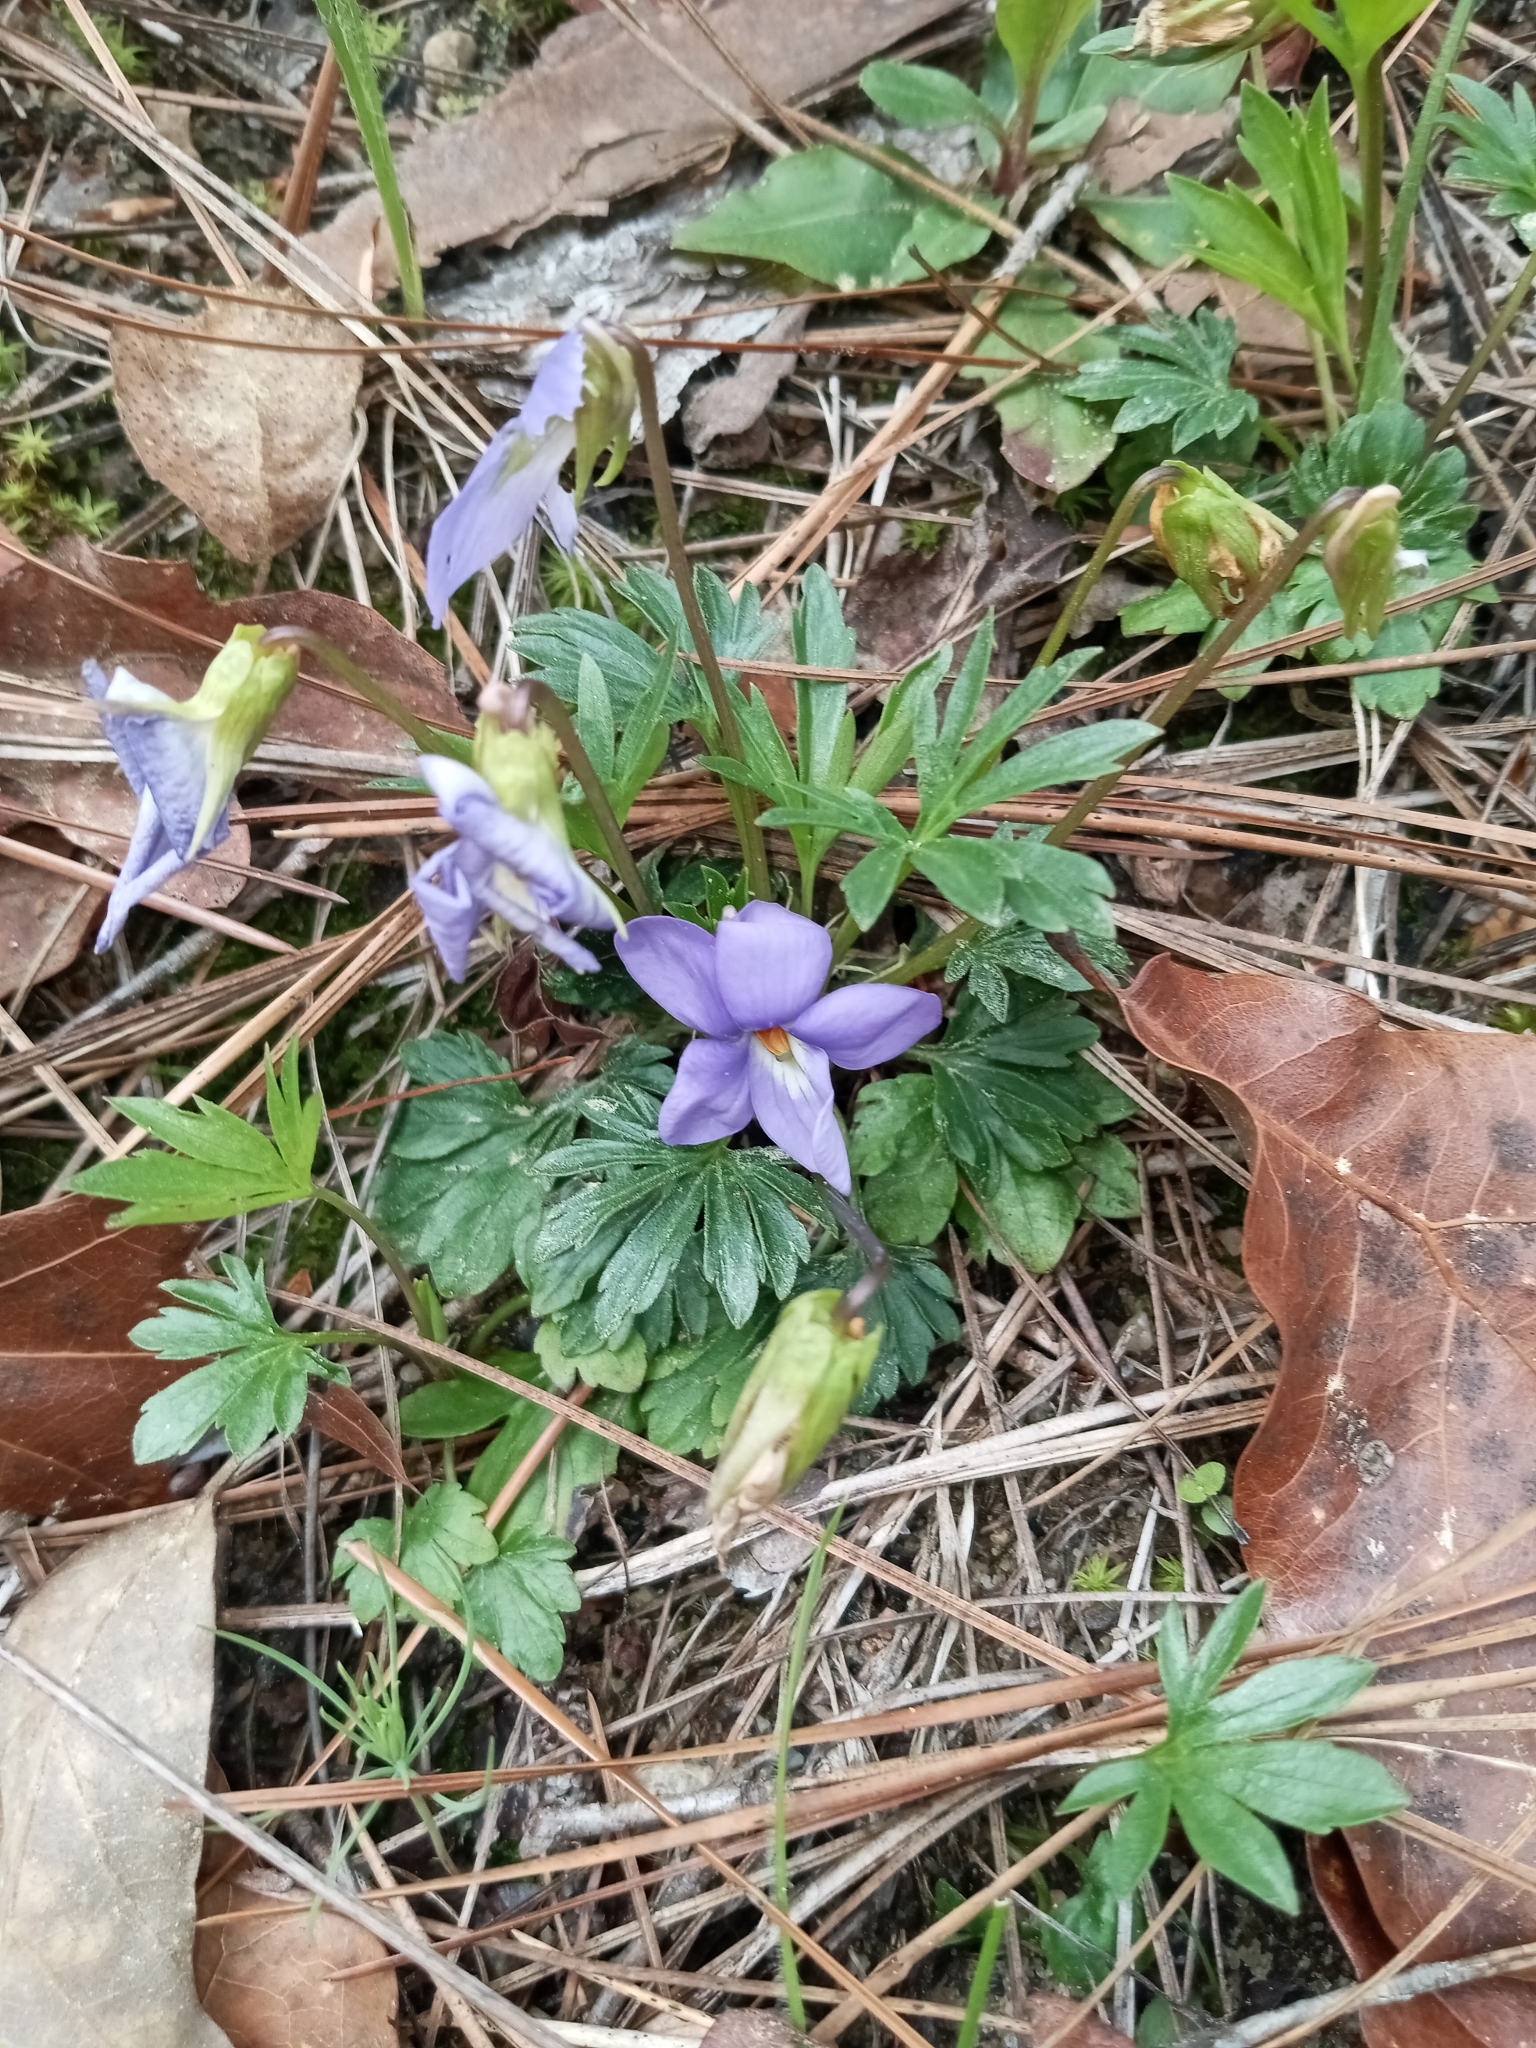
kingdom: Plantae
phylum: Tracheophyta
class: Magnoliopsida
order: Malpighiales
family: Violaceae
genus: Viola
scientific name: Viola pedata
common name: Pansy violet
